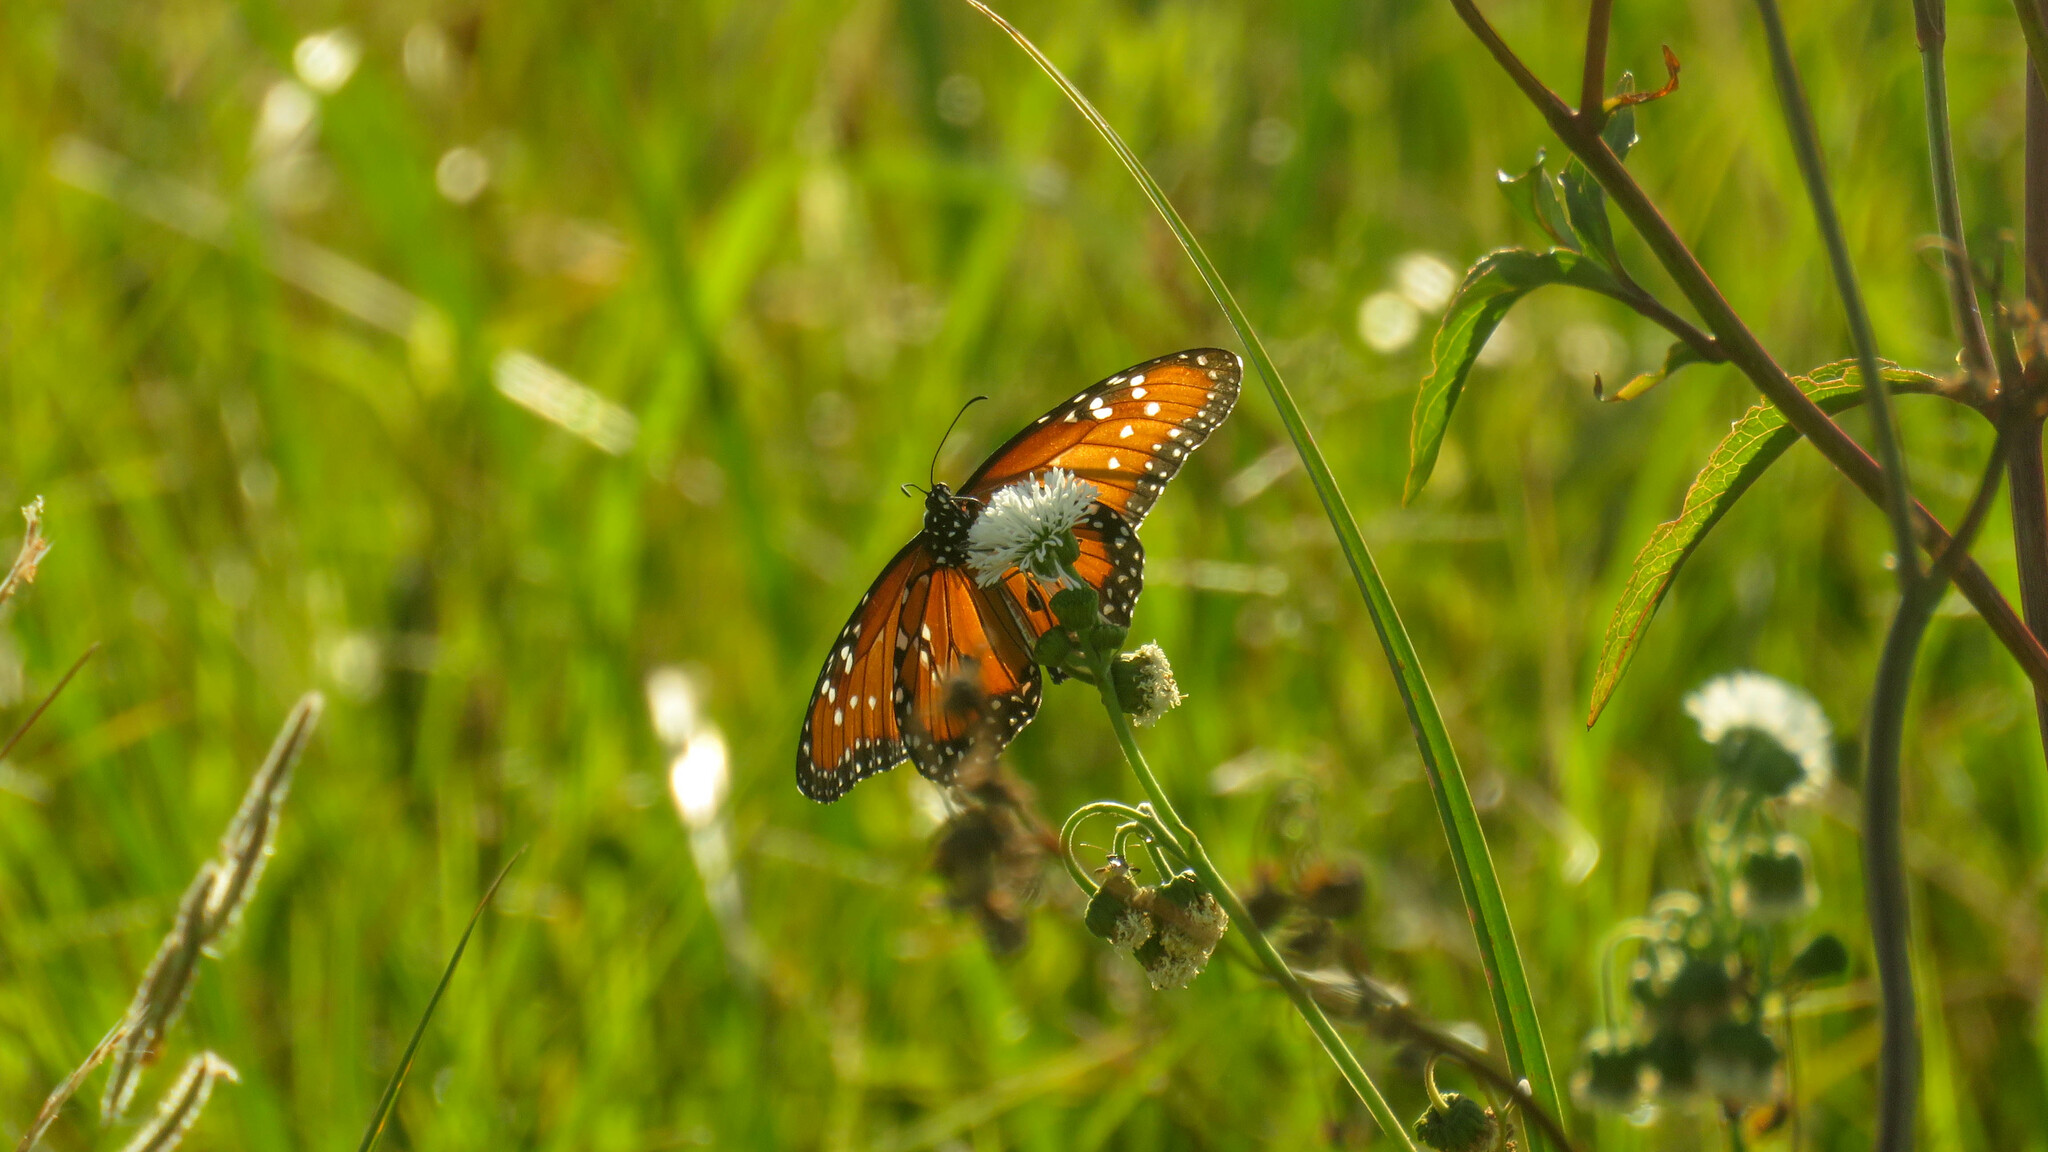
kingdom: Animalia
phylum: Arthropoda
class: Insecta
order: Lepidoptera
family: Nymphalidae
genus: Danaus
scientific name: Danaus gilippus
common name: Queen
